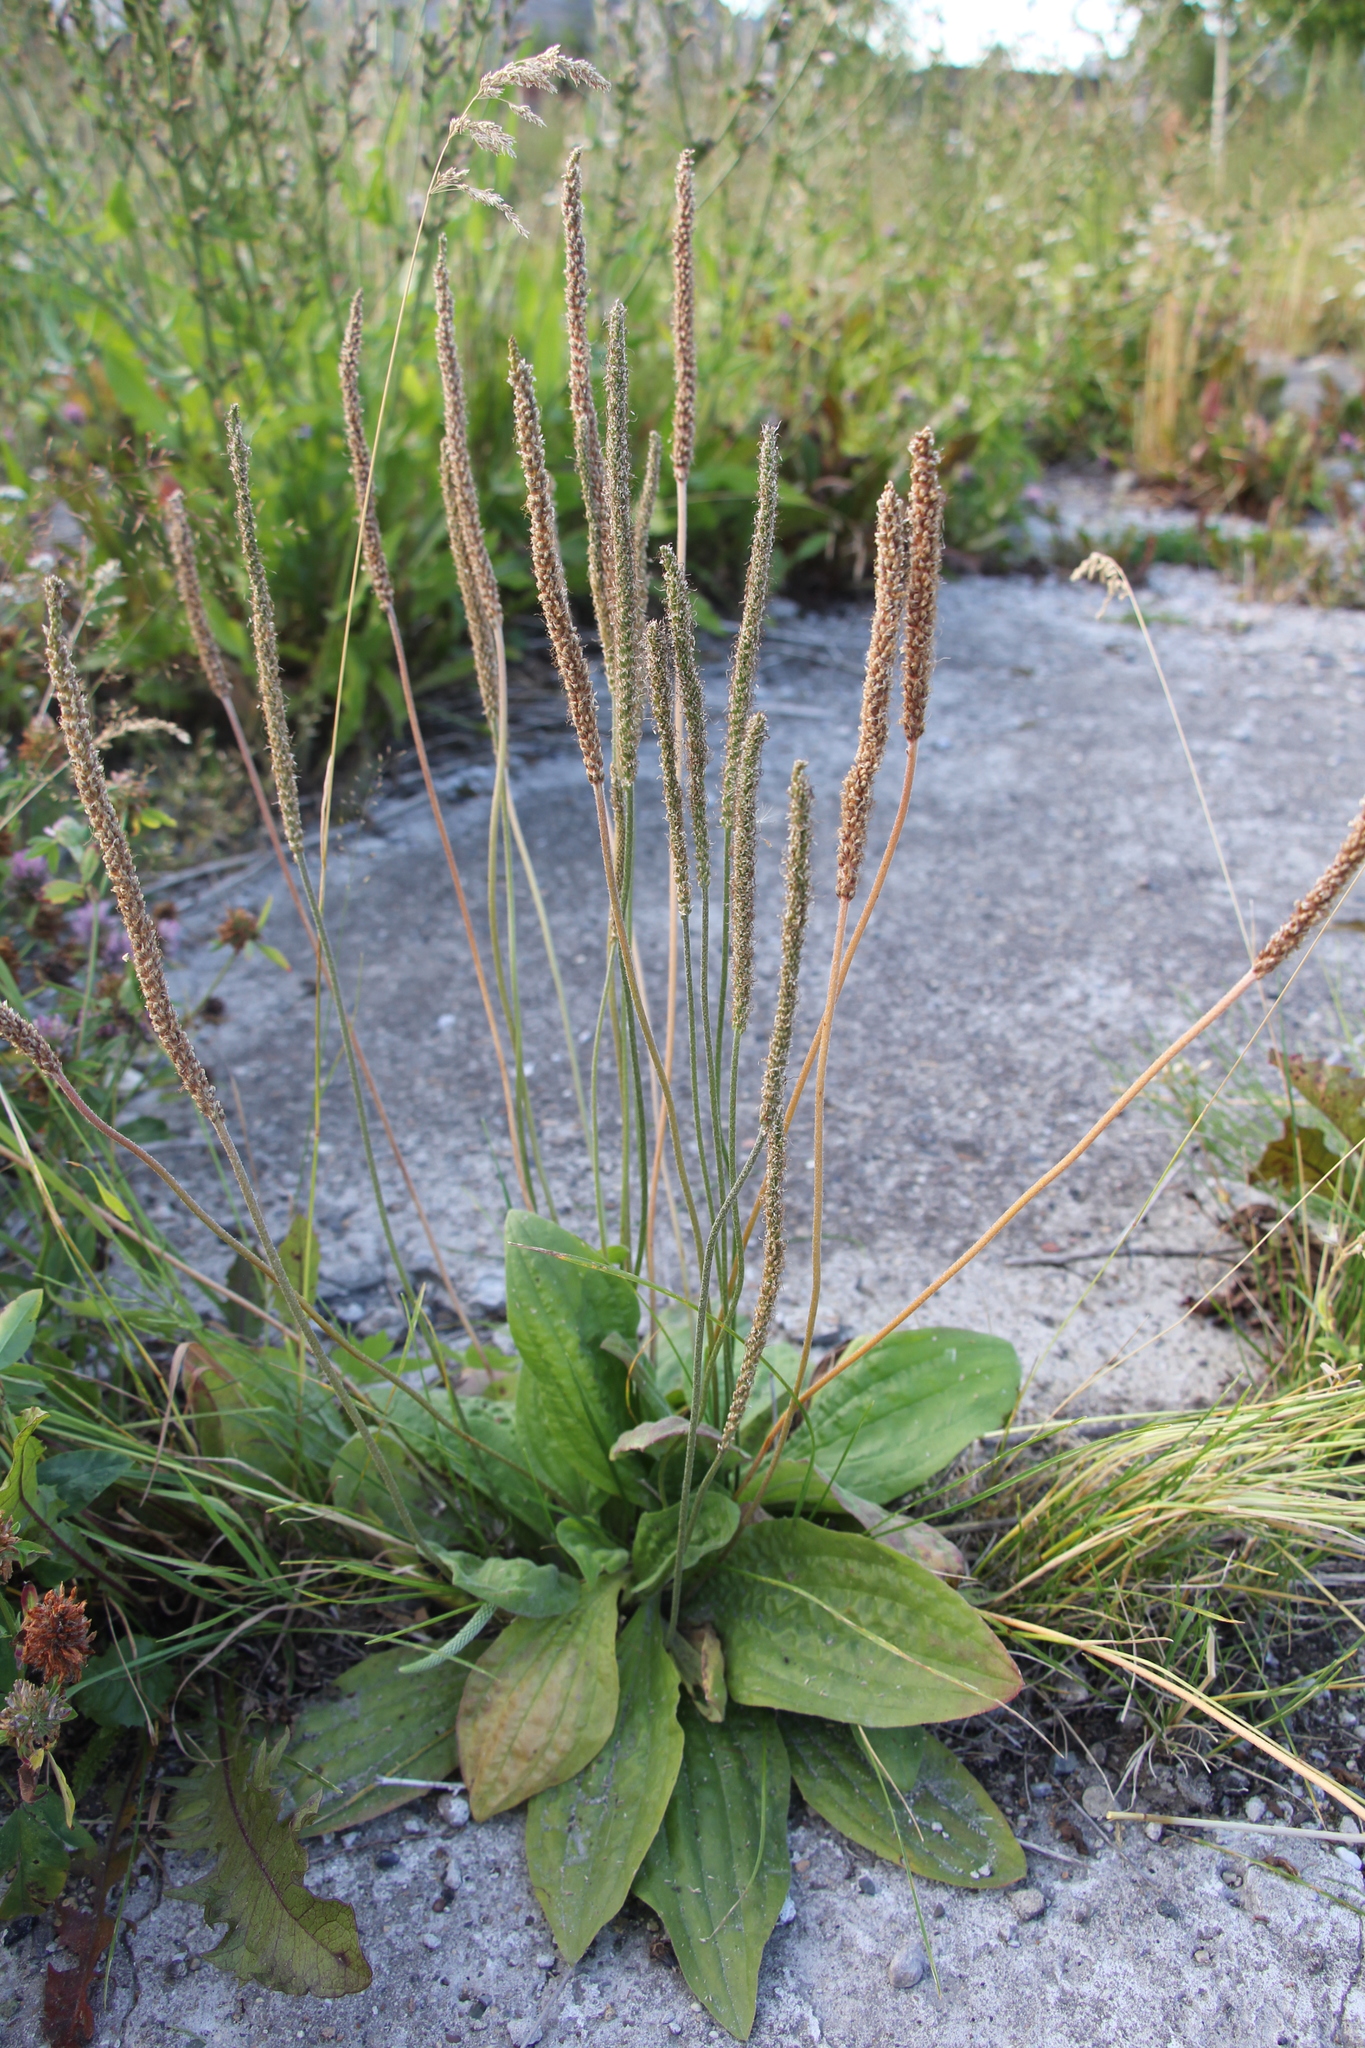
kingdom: Plantae
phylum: Tracheophyta
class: Magnoliopsida
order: Lamiales
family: Plantaginaceae
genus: Plantago
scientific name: Plantago media
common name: Hoary plantain
